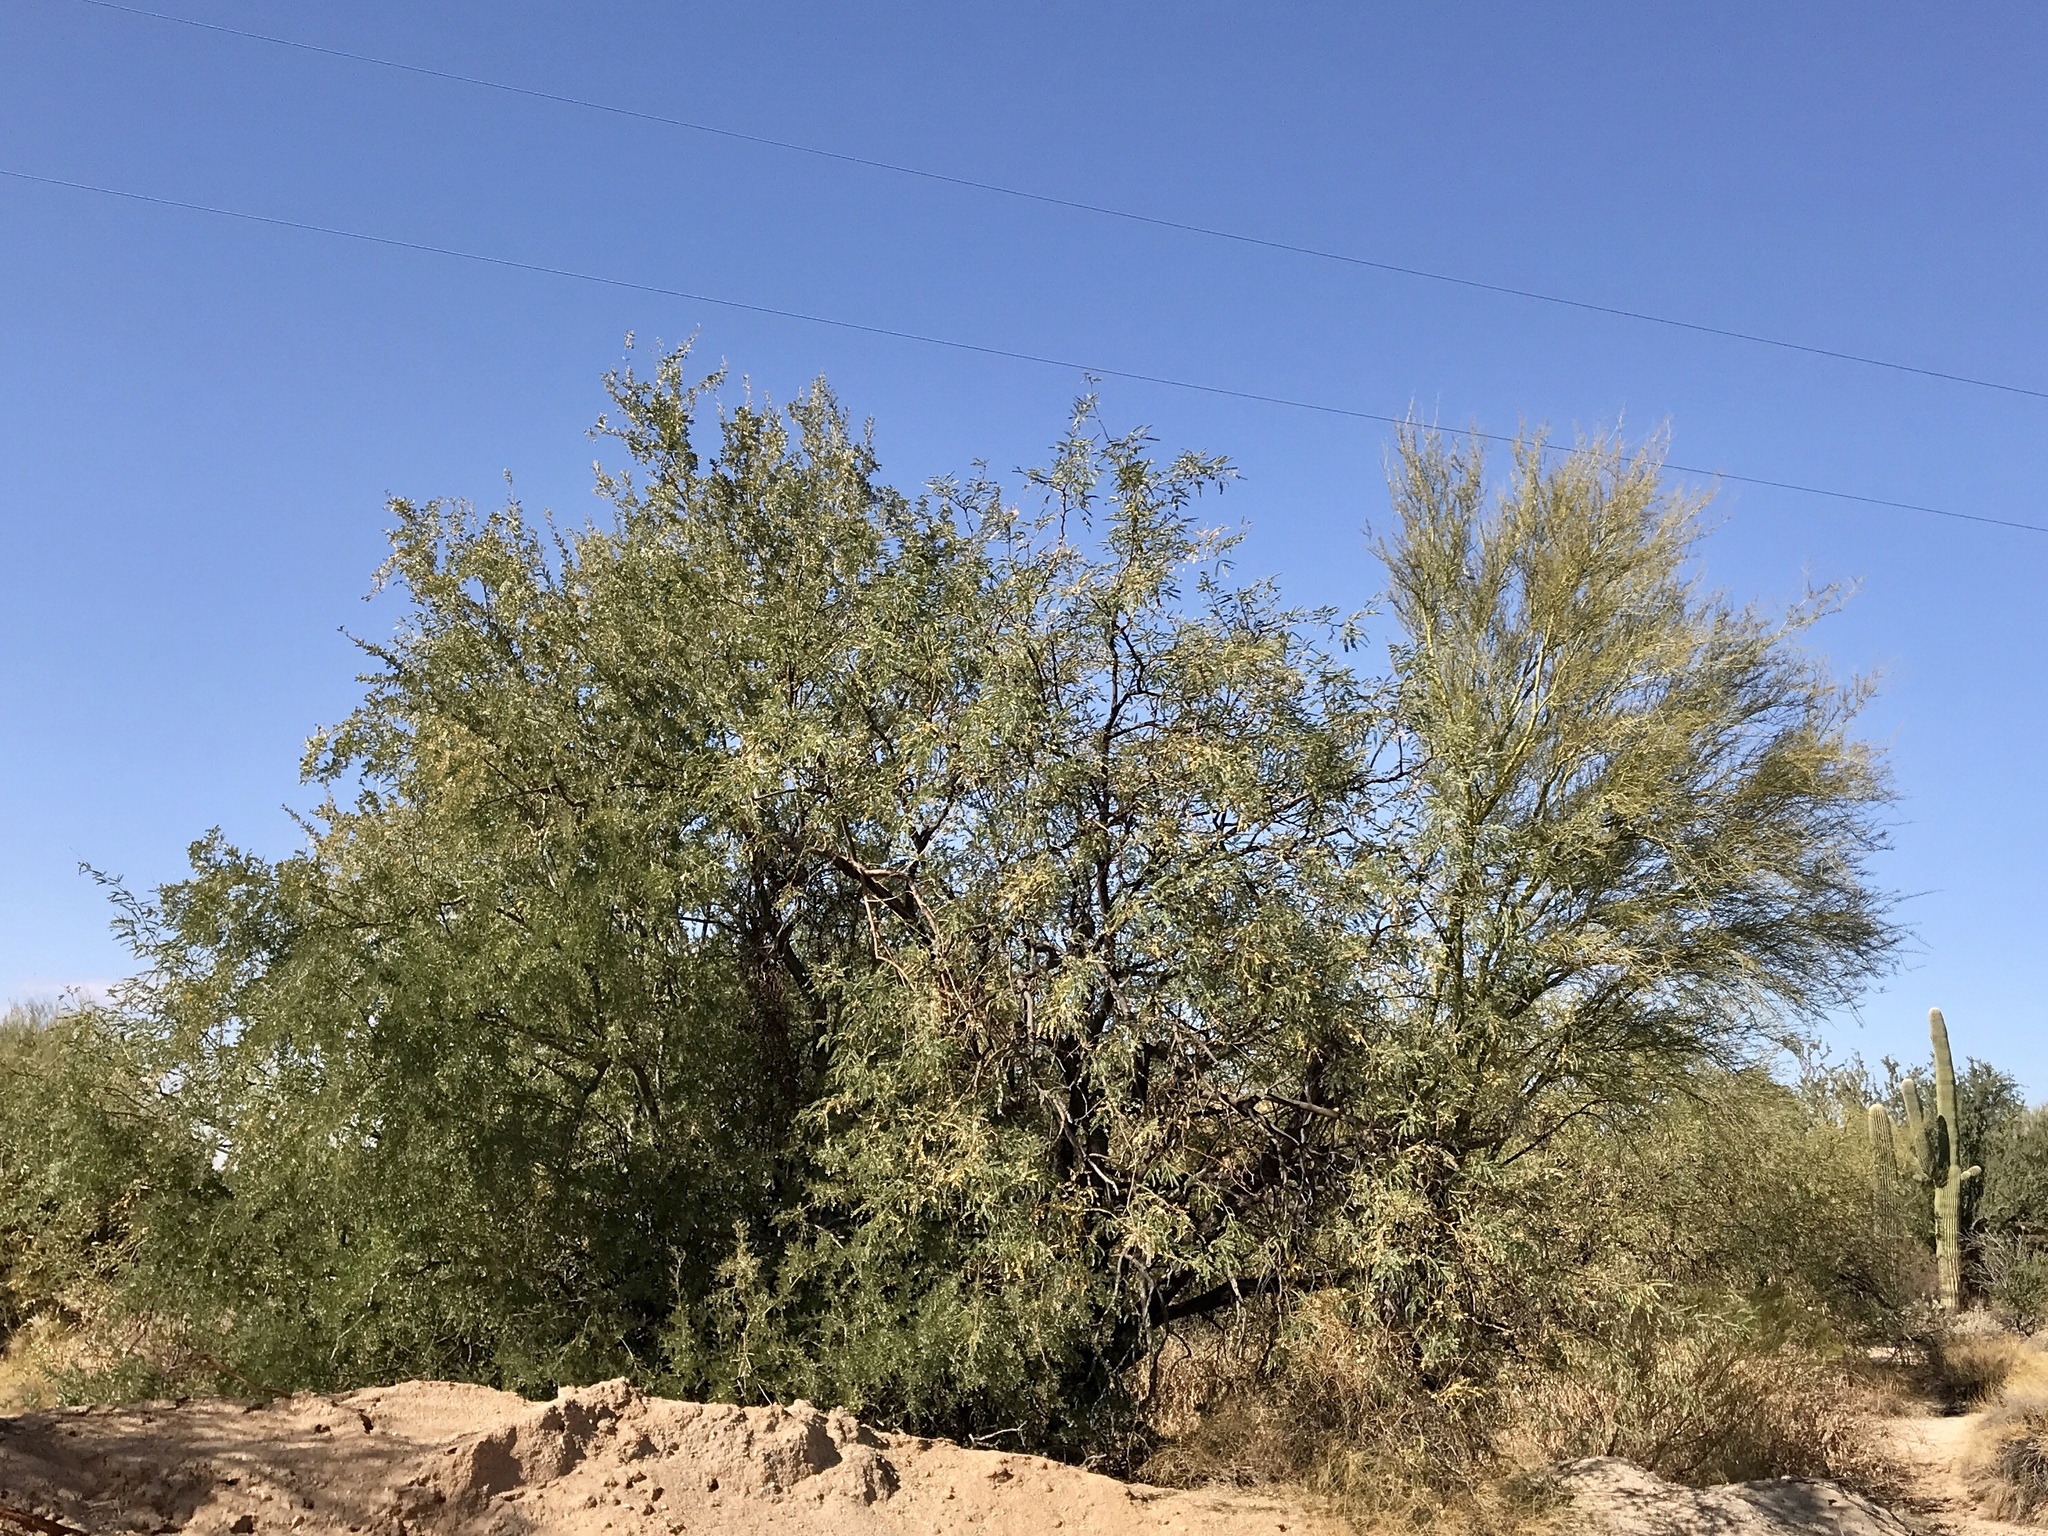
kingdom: Plantae
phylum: Tracheophyta
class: Magnoliopsida
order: Fabales
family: Fabaceae
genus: Parkinsonia
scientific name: Parkinsonia microphylla
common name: Yellow paloverde
